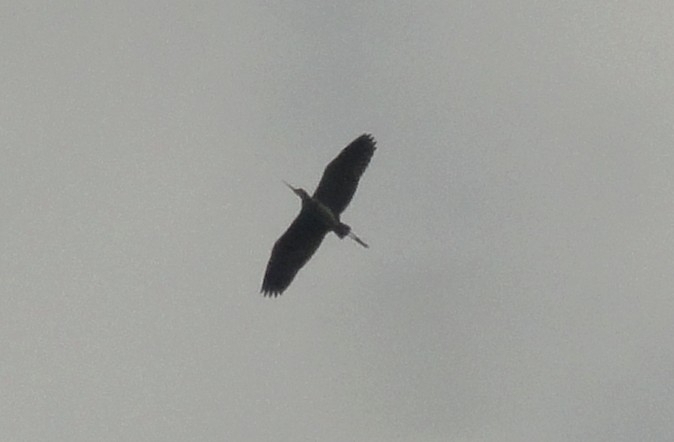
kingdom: Animalia
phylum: Chordata
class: Aves
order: Pelecaniformes
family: Ardeidae
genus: Ardea
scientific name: Ardea cinerea
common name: Grey heron
